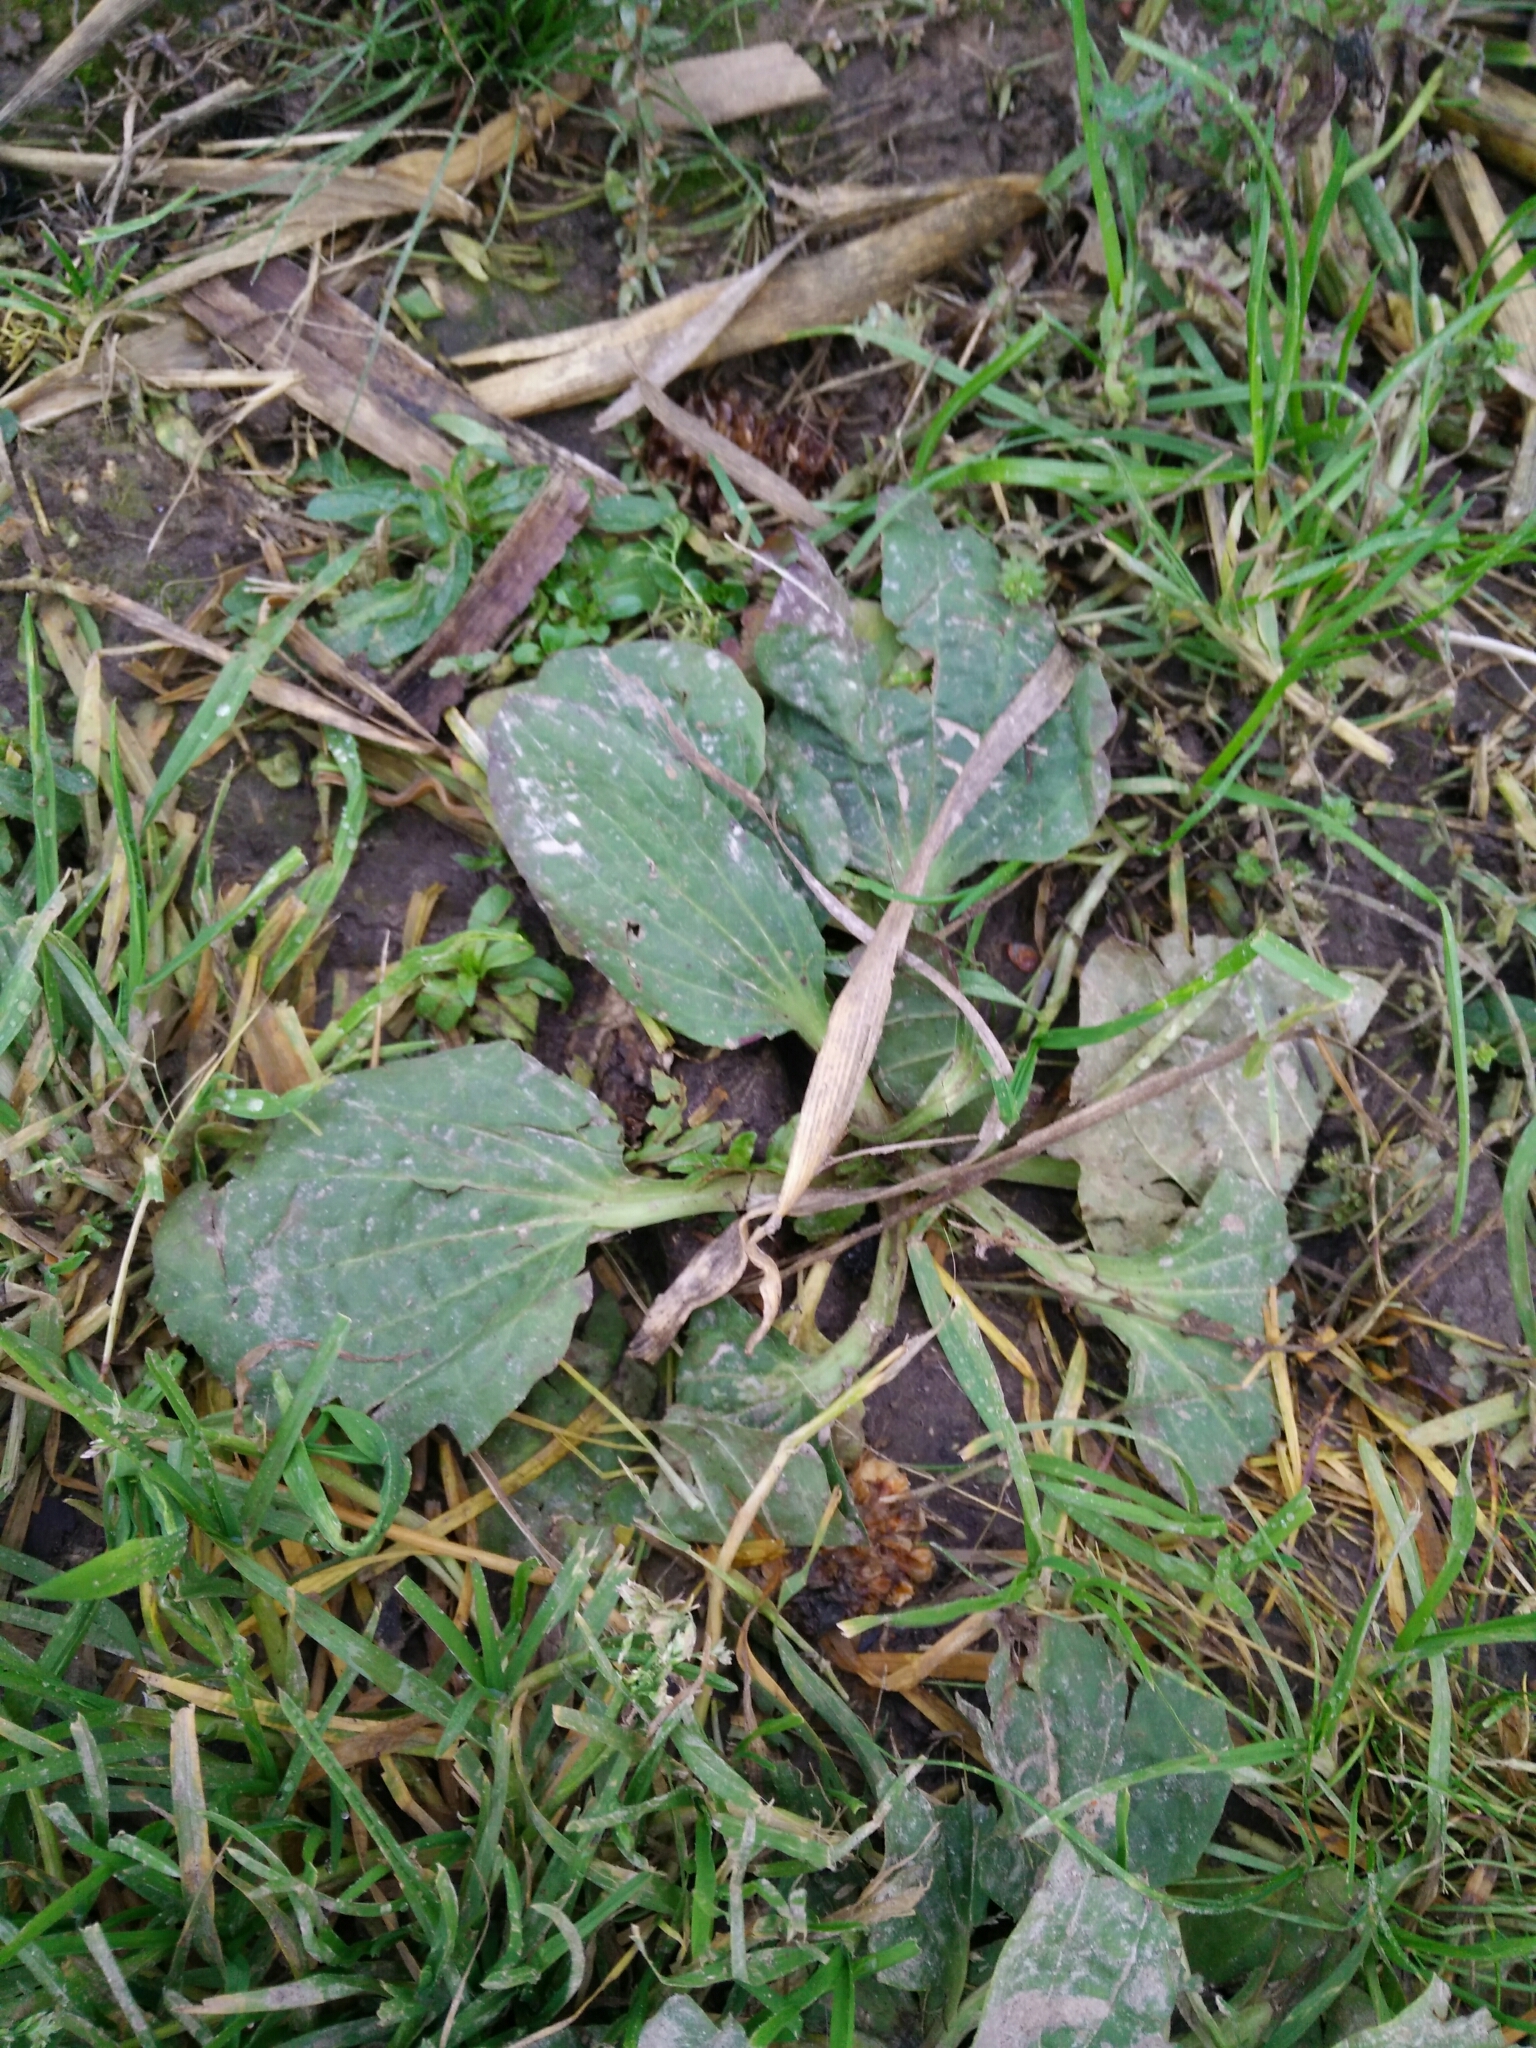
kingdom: Plantae
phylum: Tracheophyta
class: Magnoliopsida
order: Lamiales
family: Plantaginaceae
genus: Plantago
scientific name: Plantago major
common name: Common plantain
